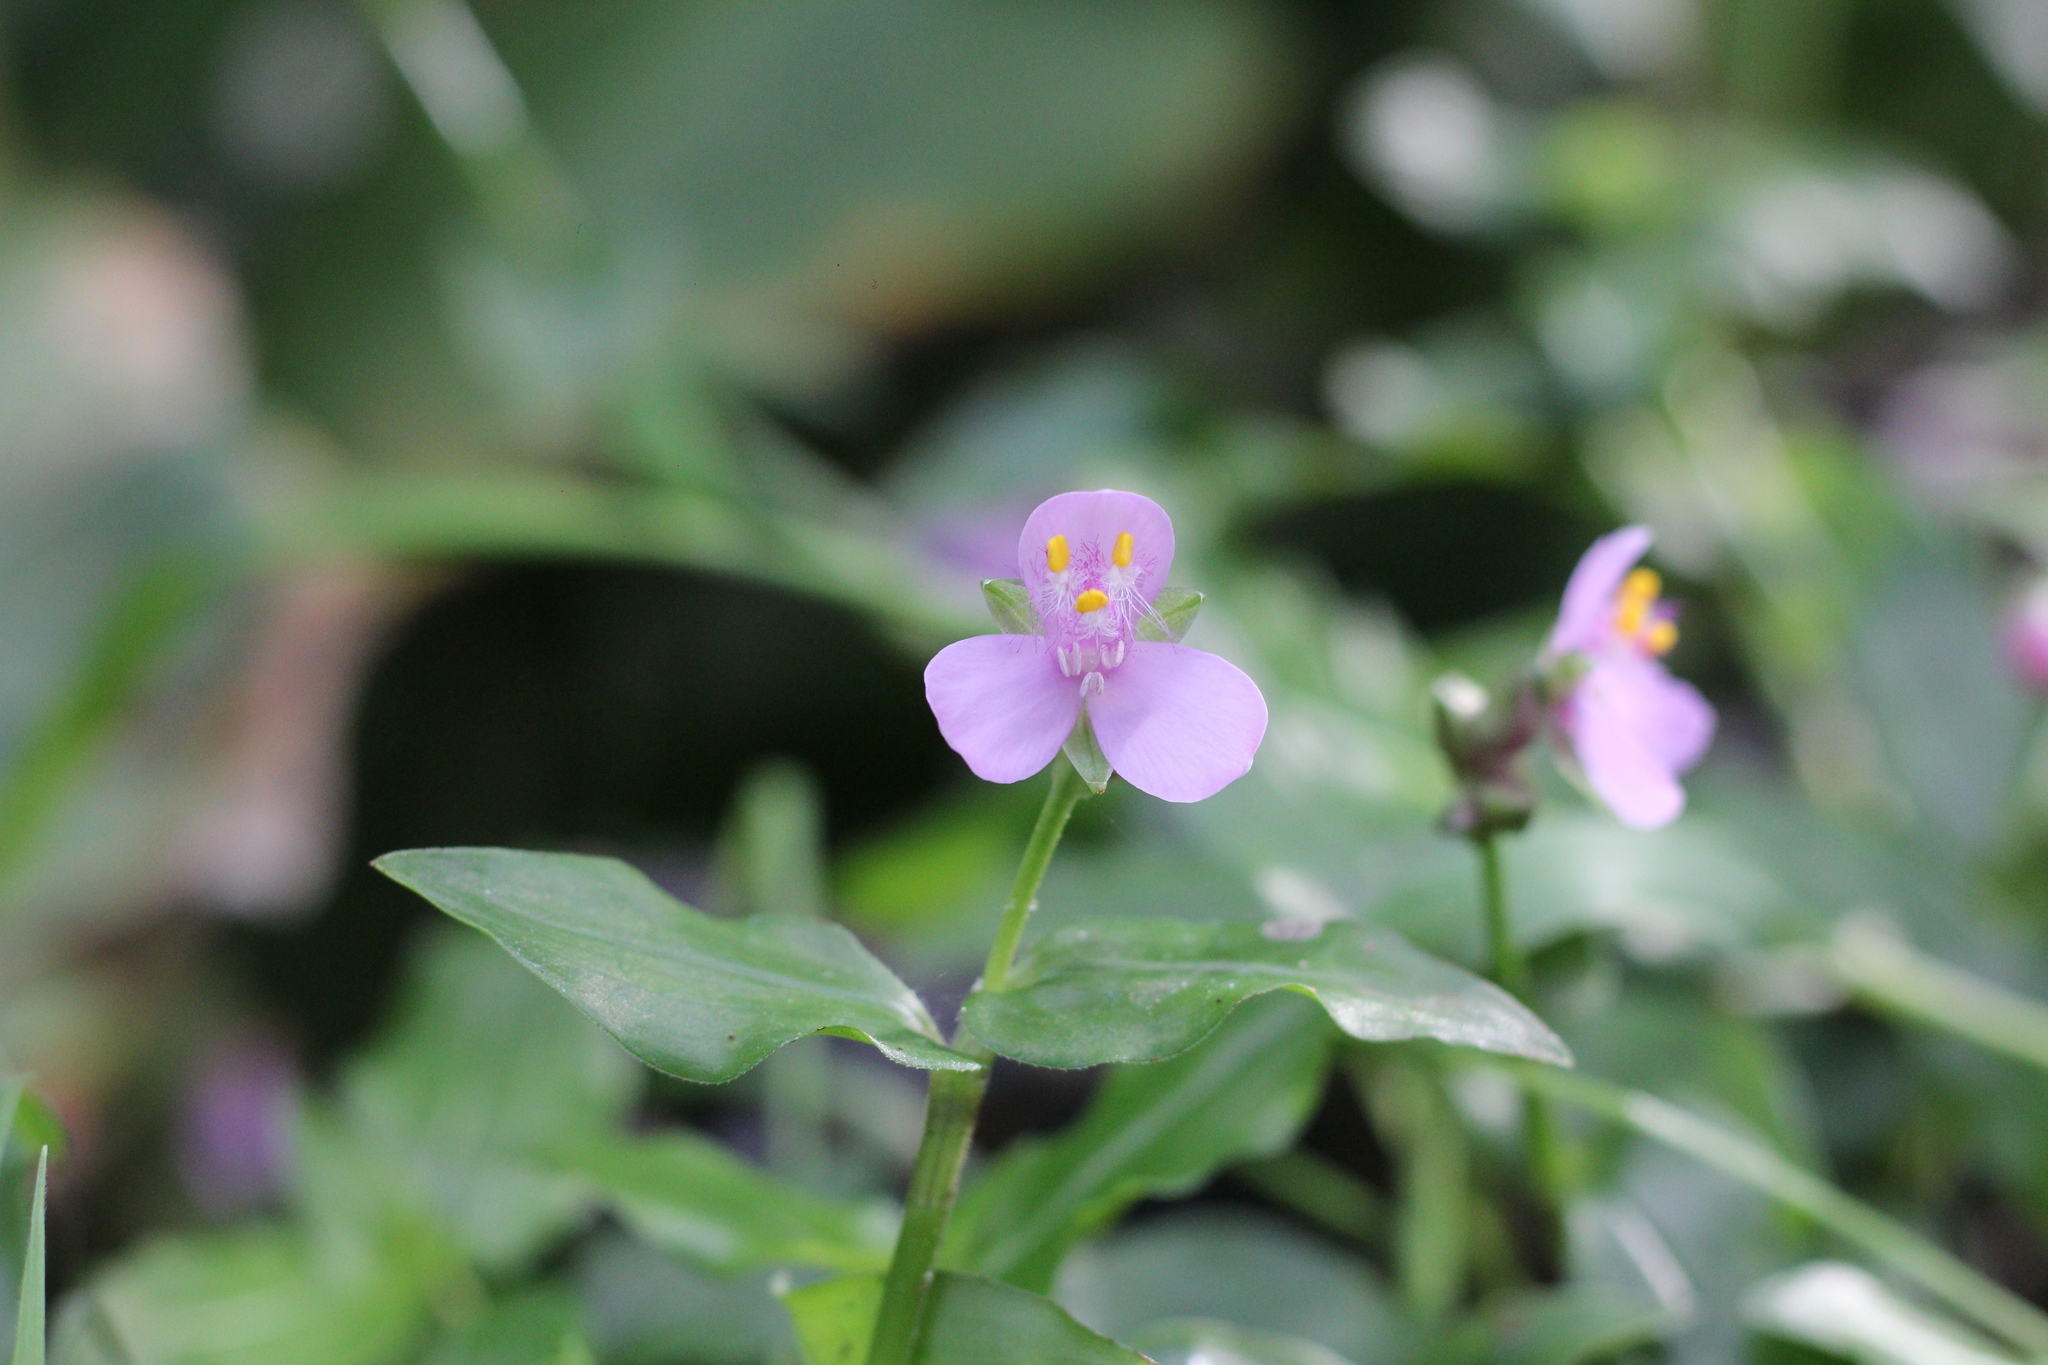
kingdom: Plantae
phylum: Tracheophyta
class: Liliopsida
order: Commelinales
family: Commelinaceae
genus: Callisia
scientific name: Callisia diuretica
